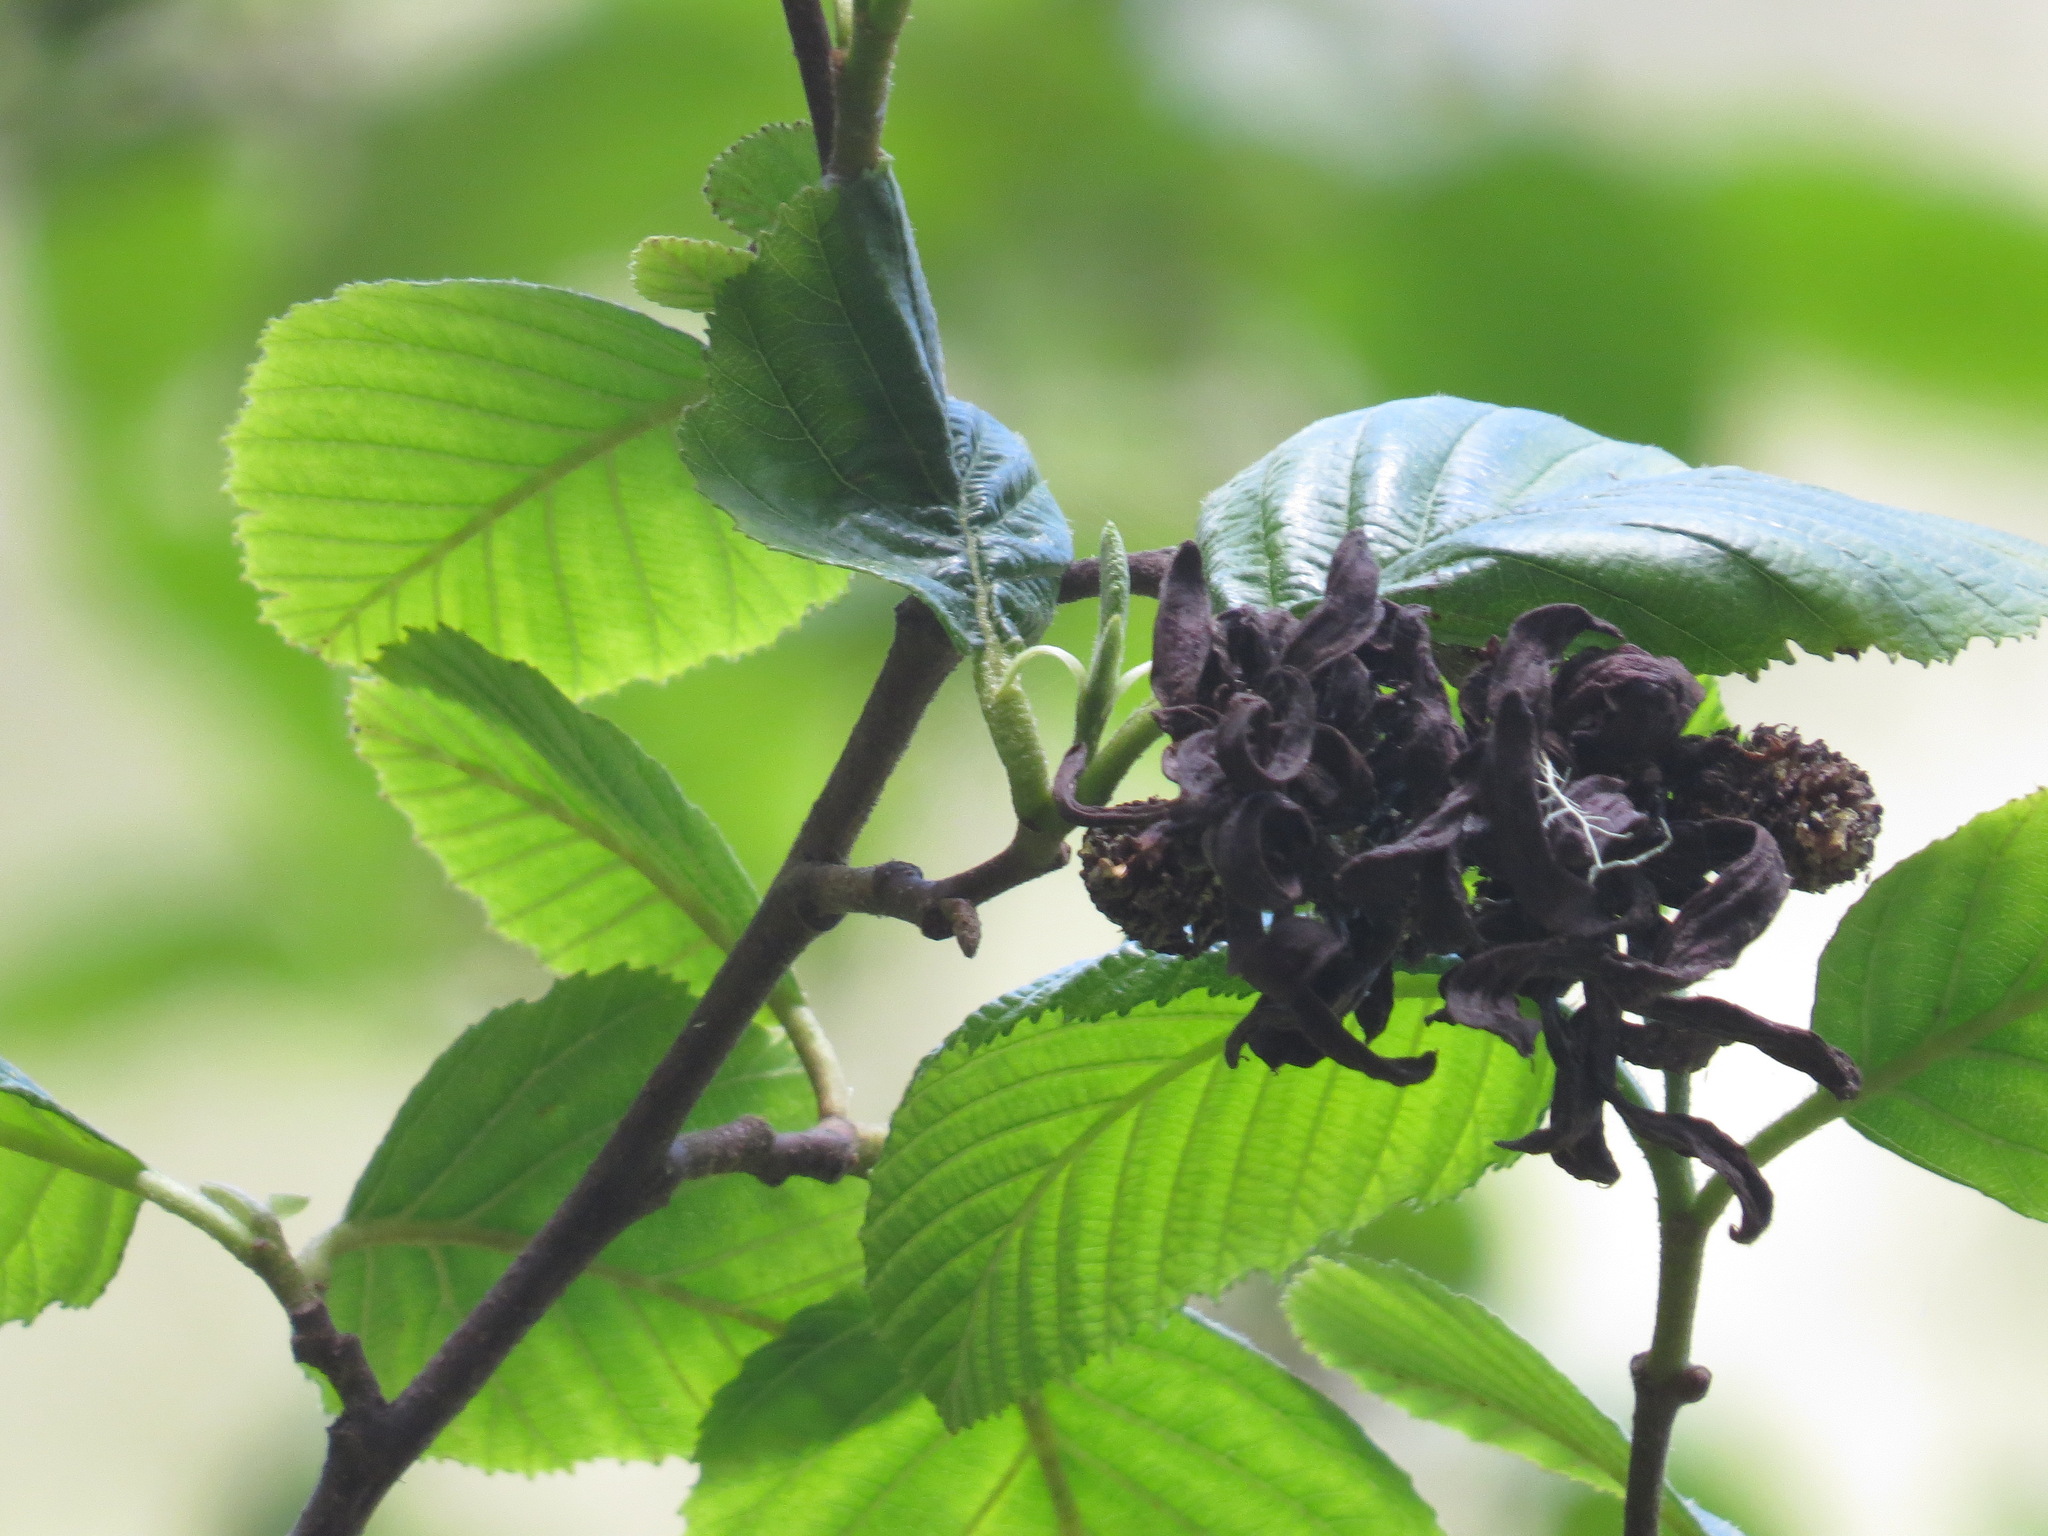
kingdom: Fungi
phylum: Ascomycota
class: Taphrinomycetes
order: Taphrinales
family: Taphrinaceae
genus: Taphrina
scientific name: Taphrina occidentalis
